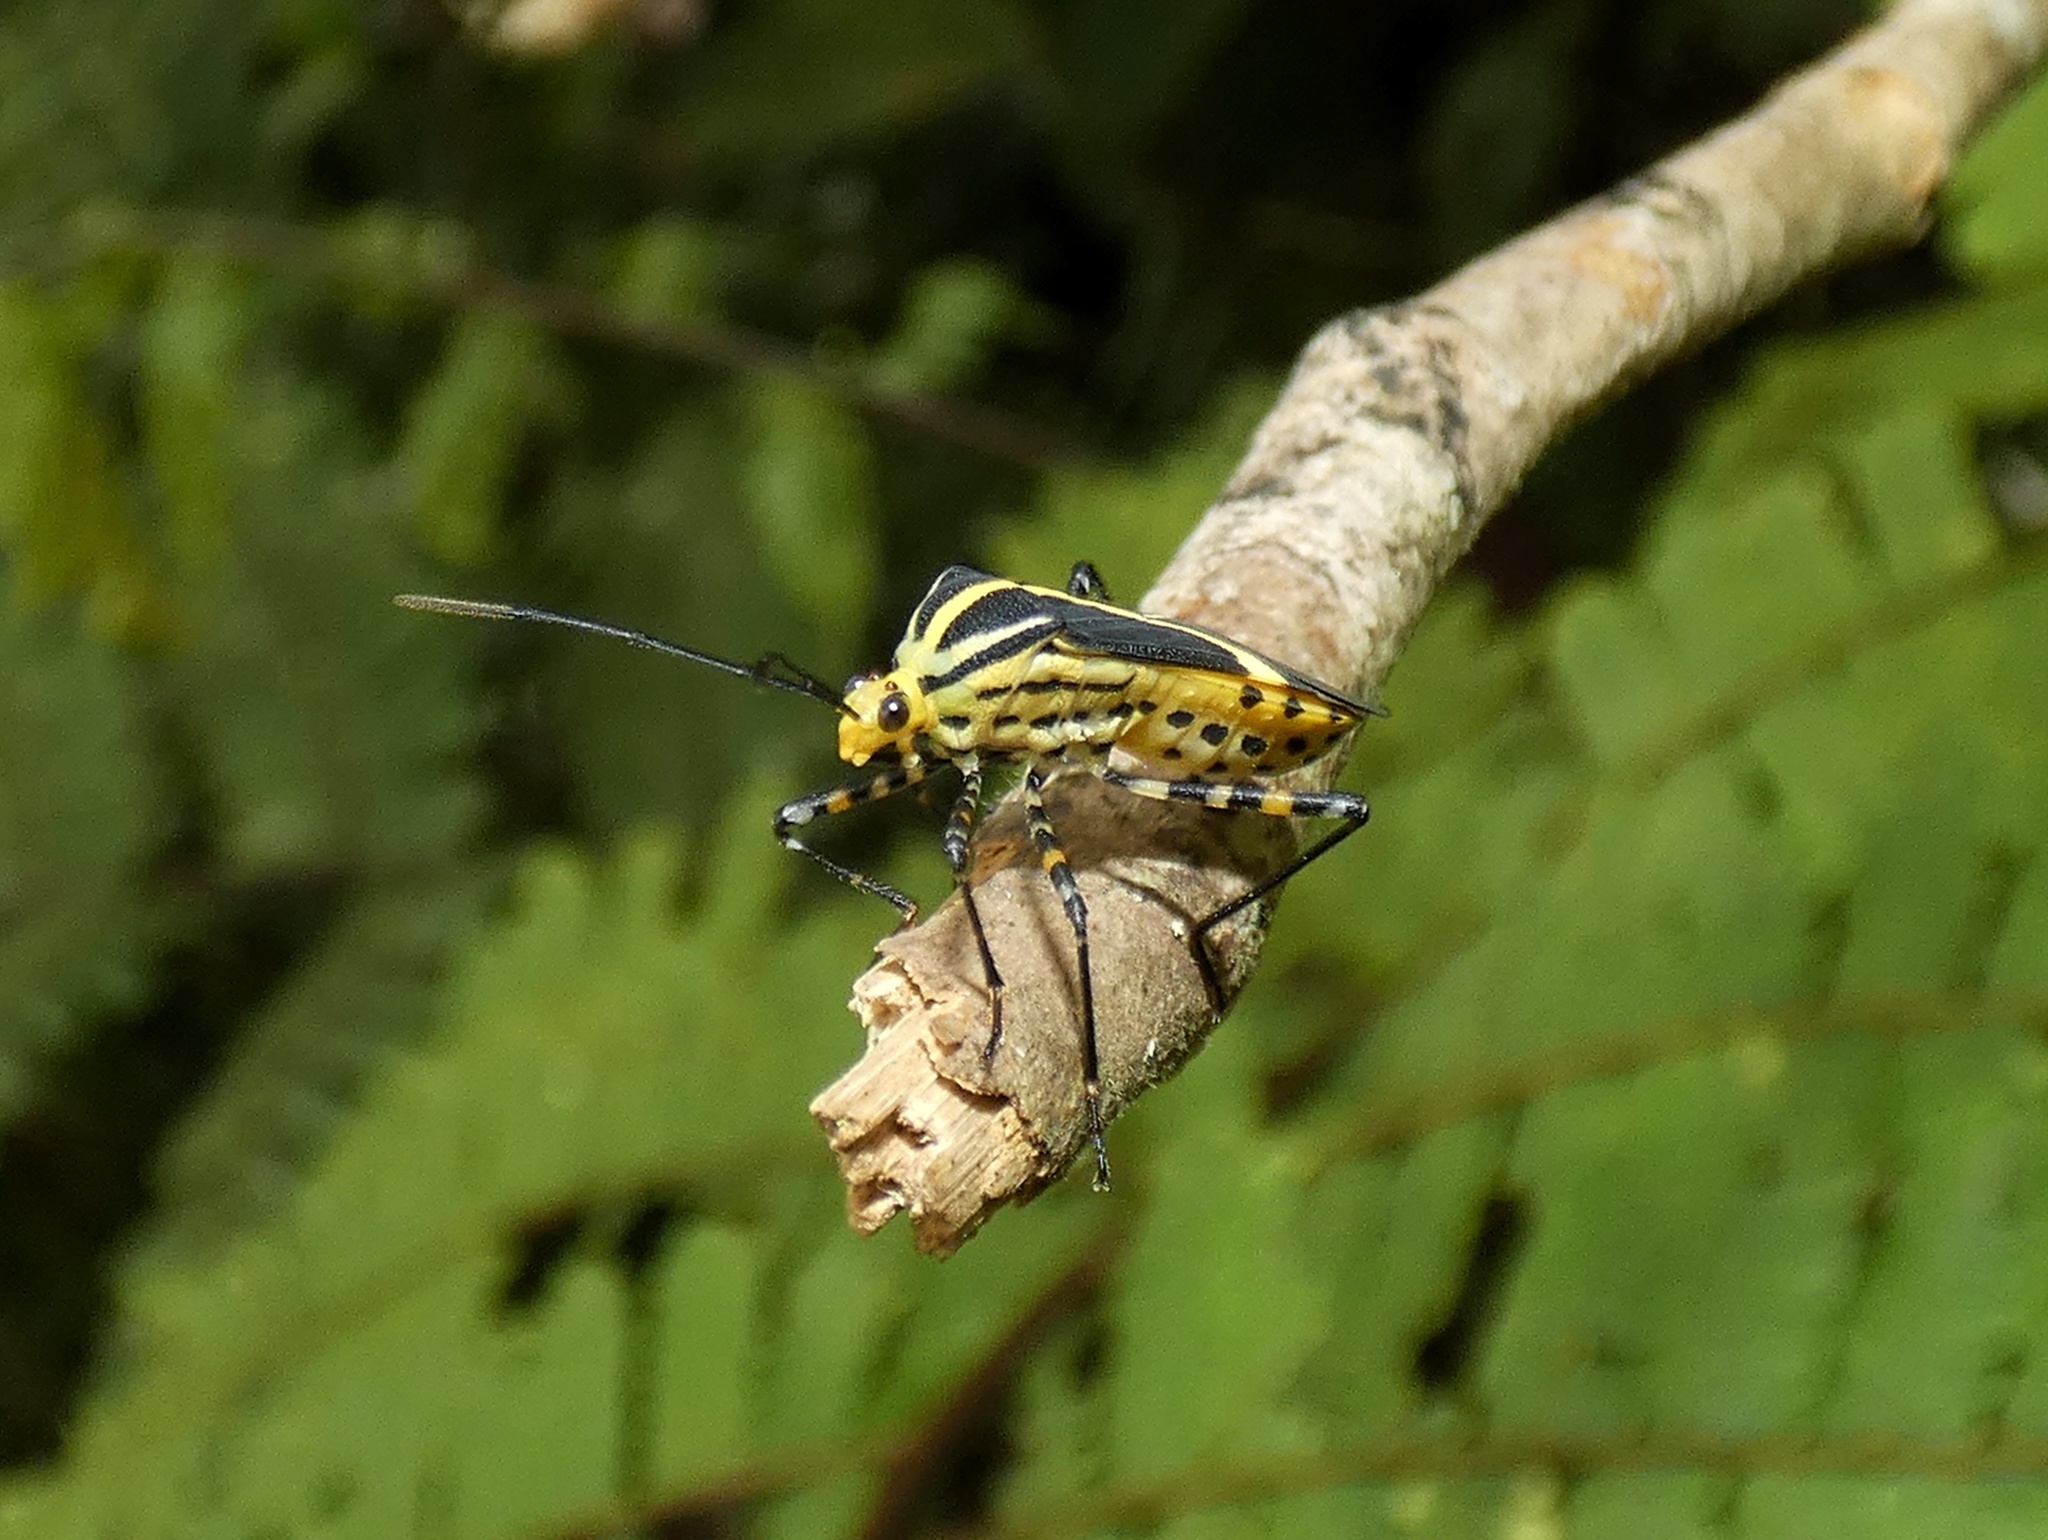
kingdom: Animalia
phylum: Arthropoda
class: Insecta
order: Hemiptera
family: Coreidae
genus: Hypselonotus
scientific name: Hypselonotus linea
